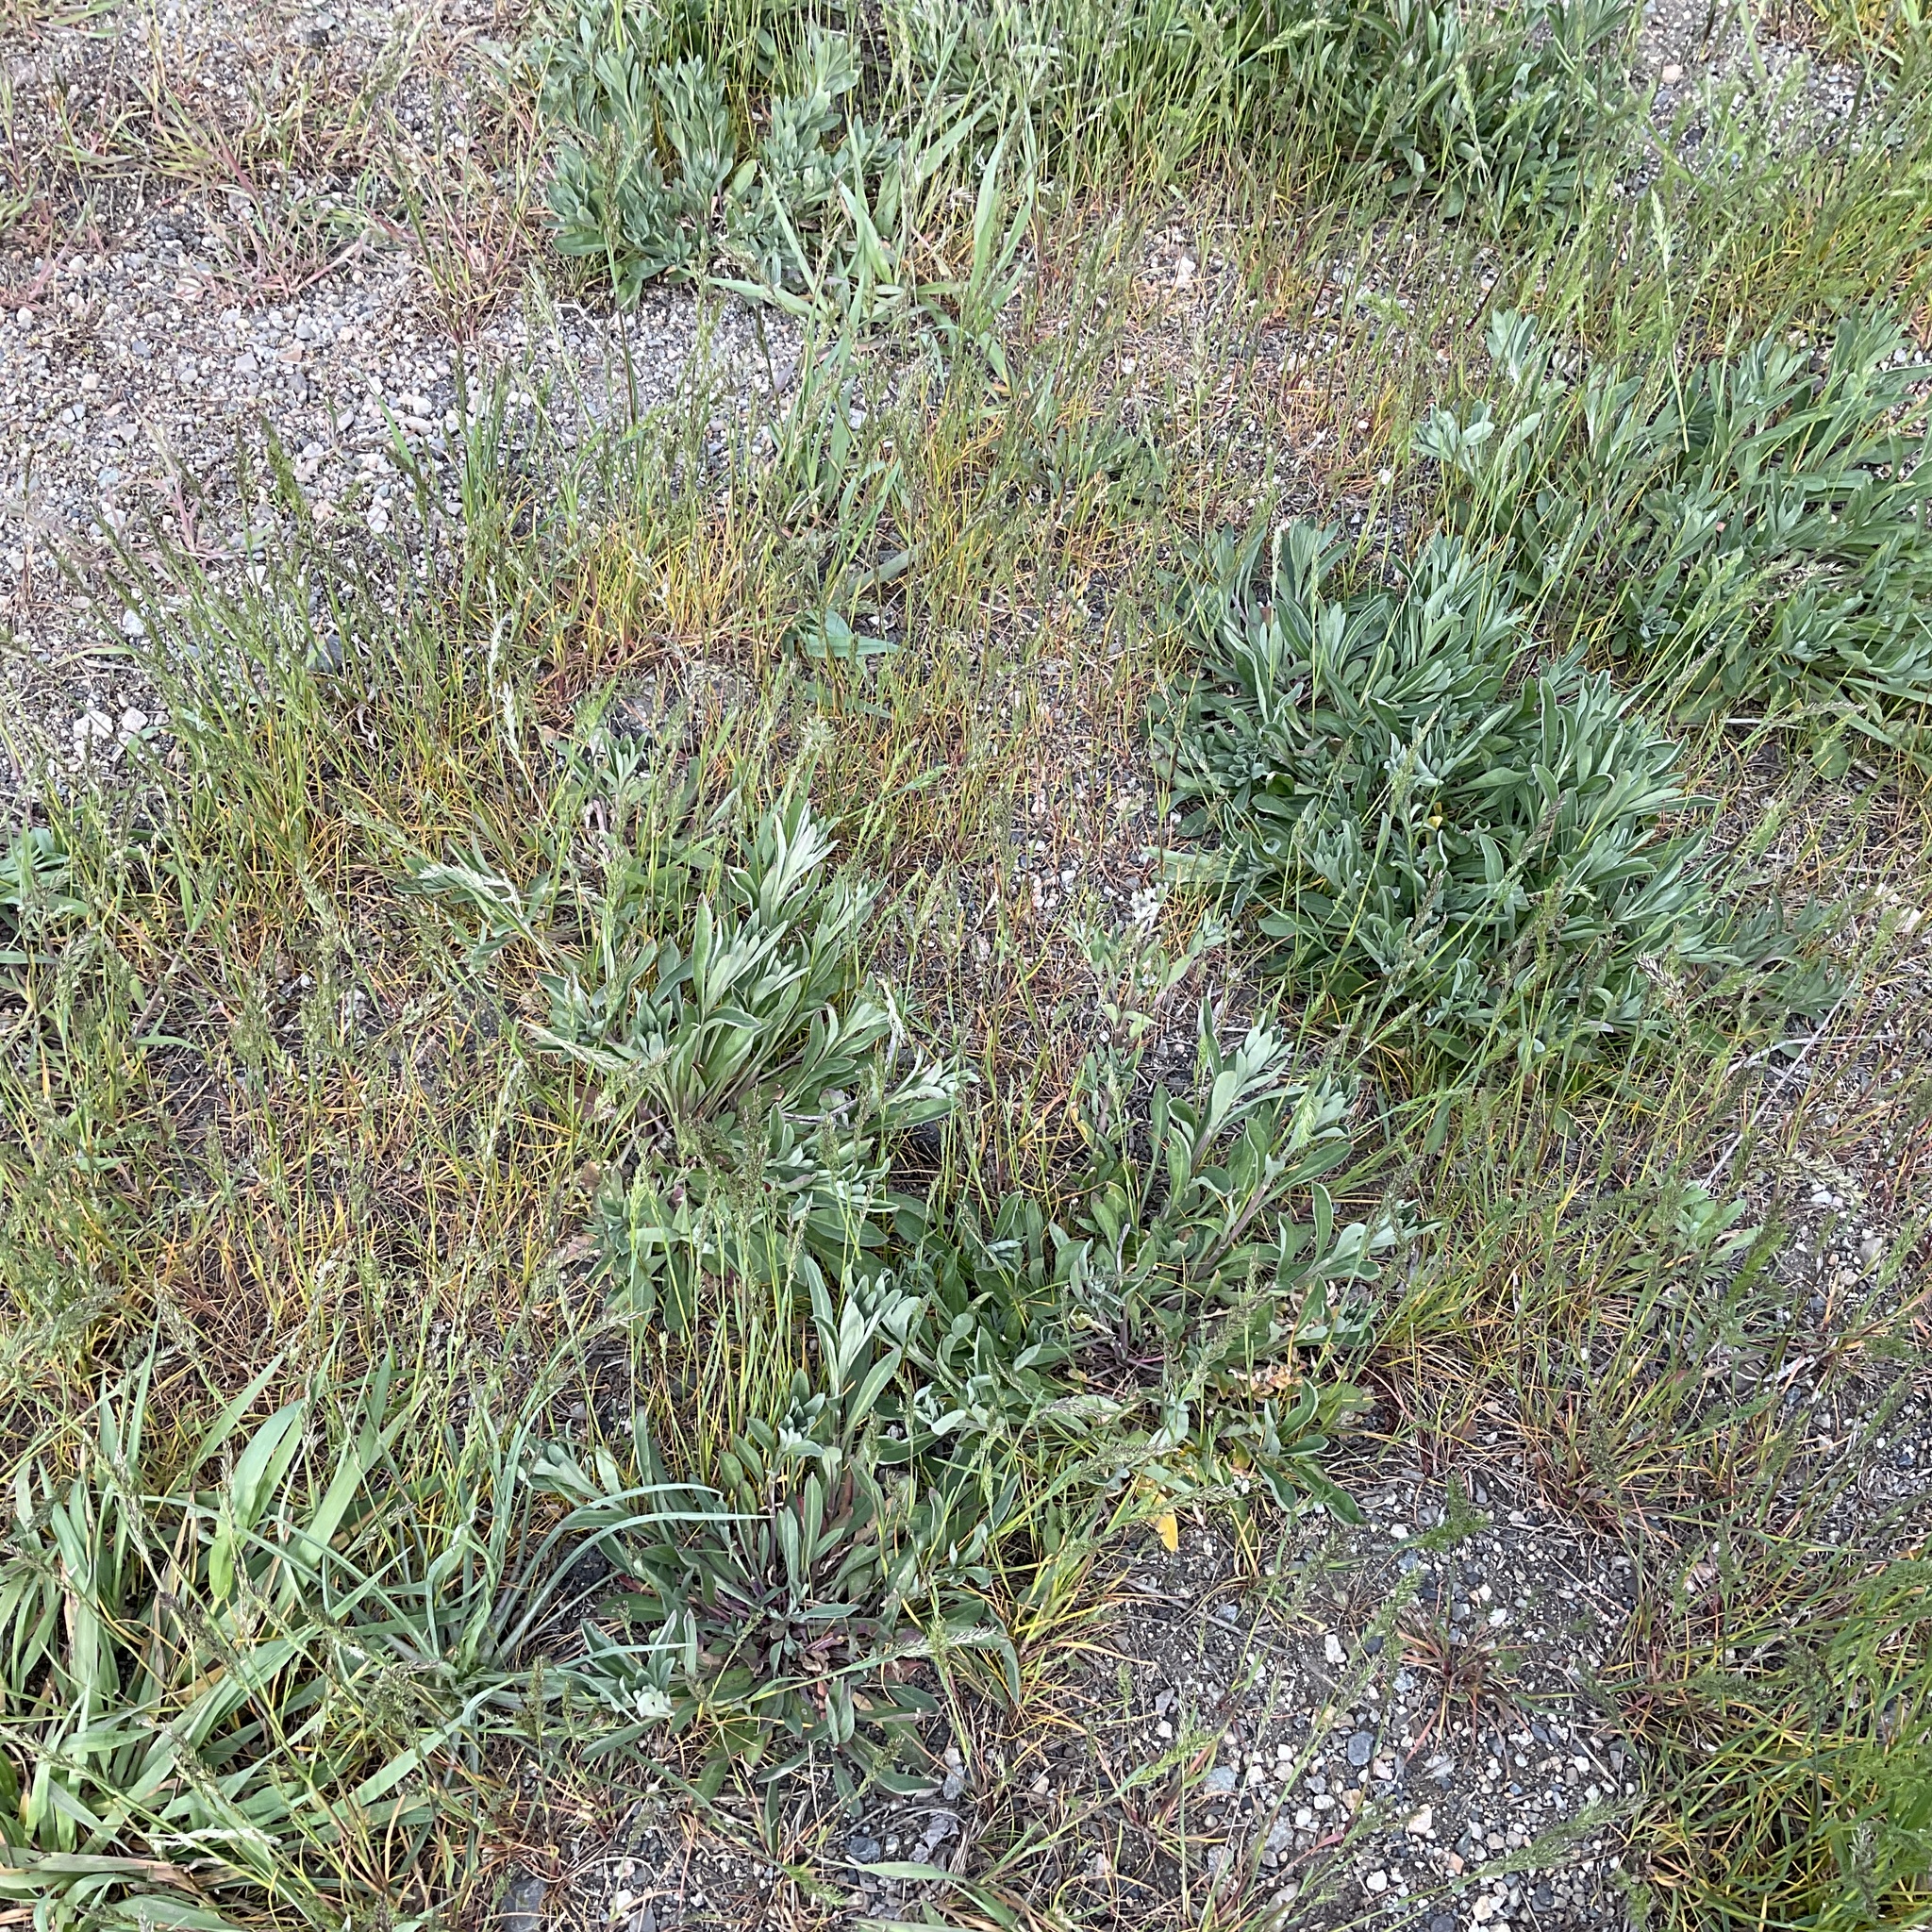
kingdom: Plantae
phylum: Tracheophyta
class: Magnoliopsida
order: Brassicales
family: Brassicaceae
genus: Berteroa
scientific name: Berteroa incana
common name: Hoary alison
